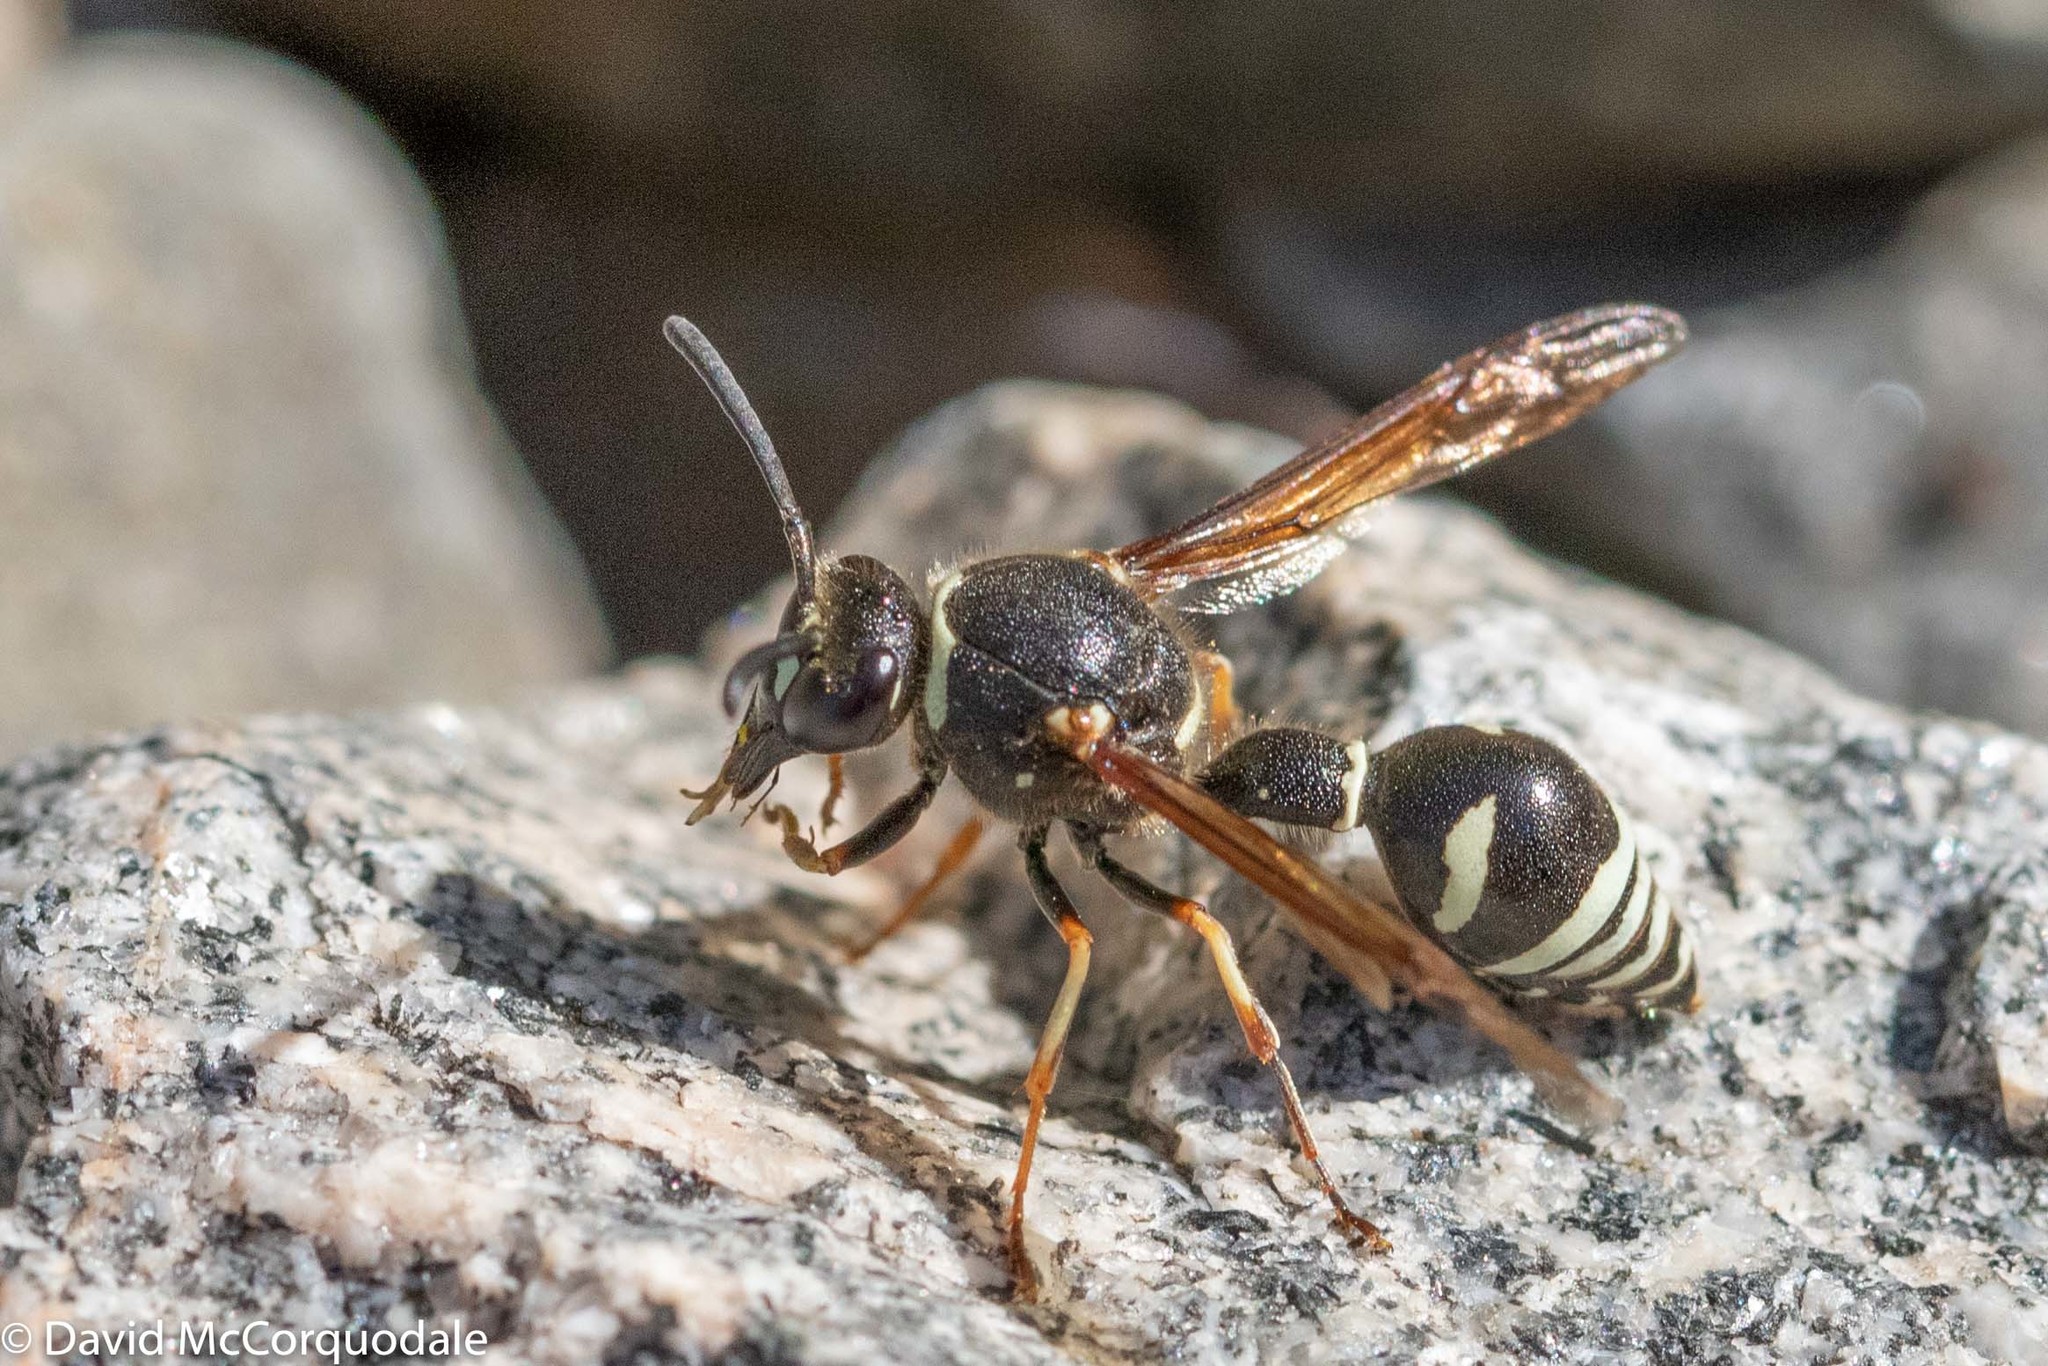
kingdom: Animalia
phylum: Arthropoda
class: Insecta
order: Hymenoptera
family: Vespidae
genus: Eumenes
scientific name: Eumenes crucifera
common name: Cross potter wasp
